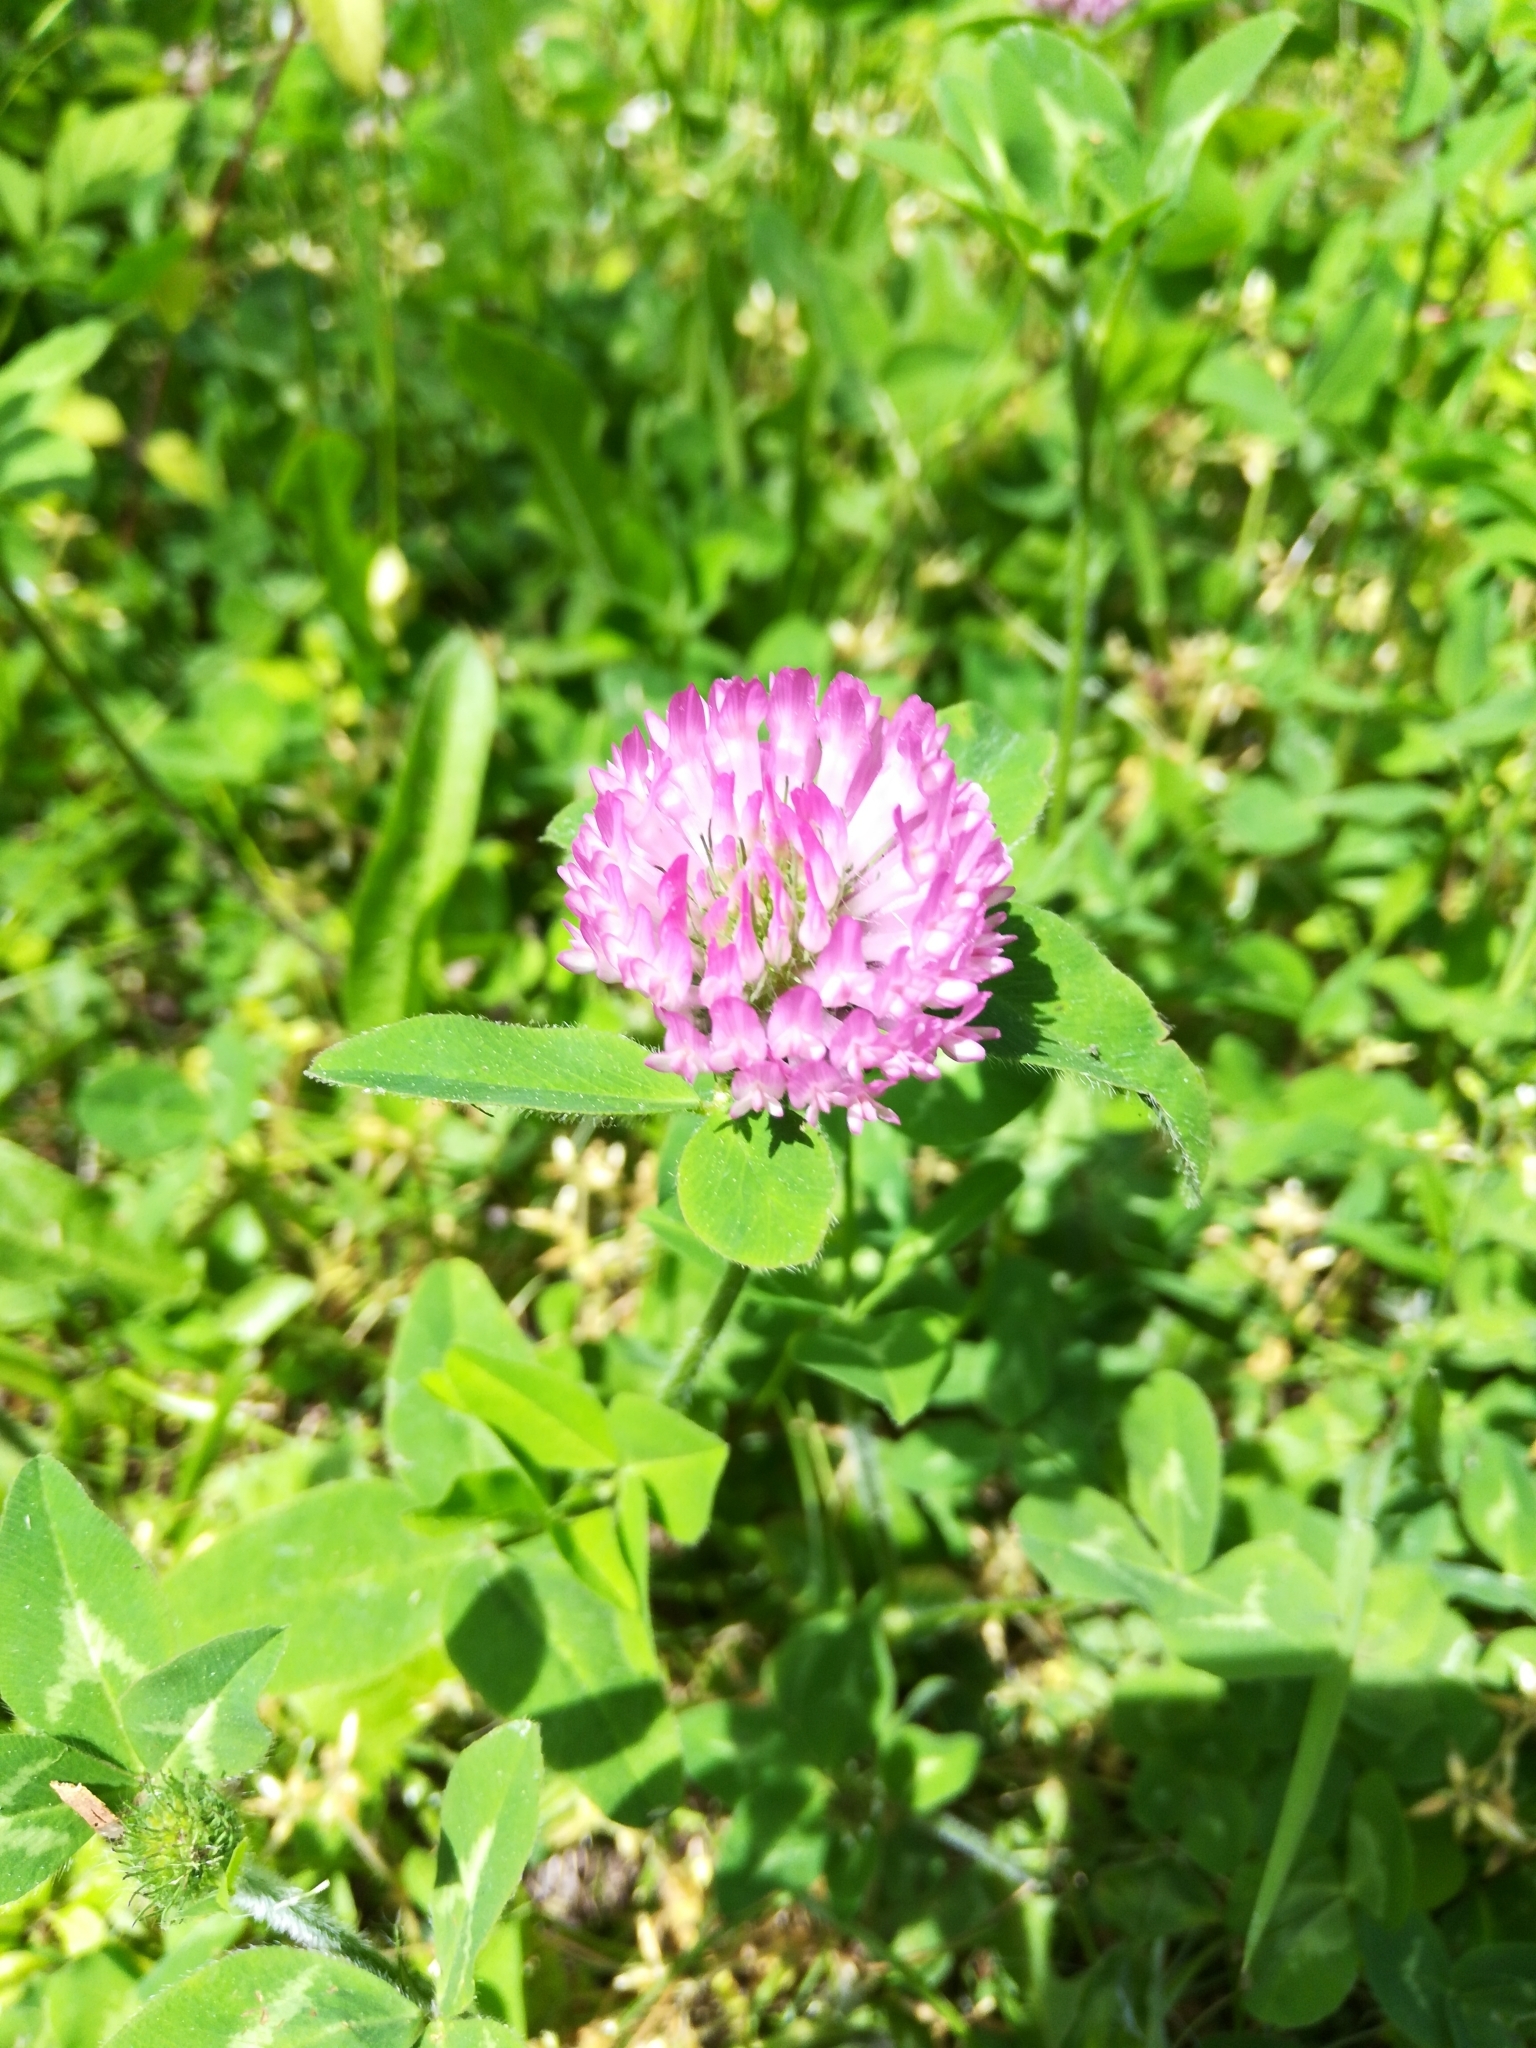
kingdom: Plantae
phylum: Tracheophyta
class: Magnoliopsida
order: Fabales
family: Fabaceae
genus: Trifolium
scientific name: Trifolium pratense
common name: Red clover
